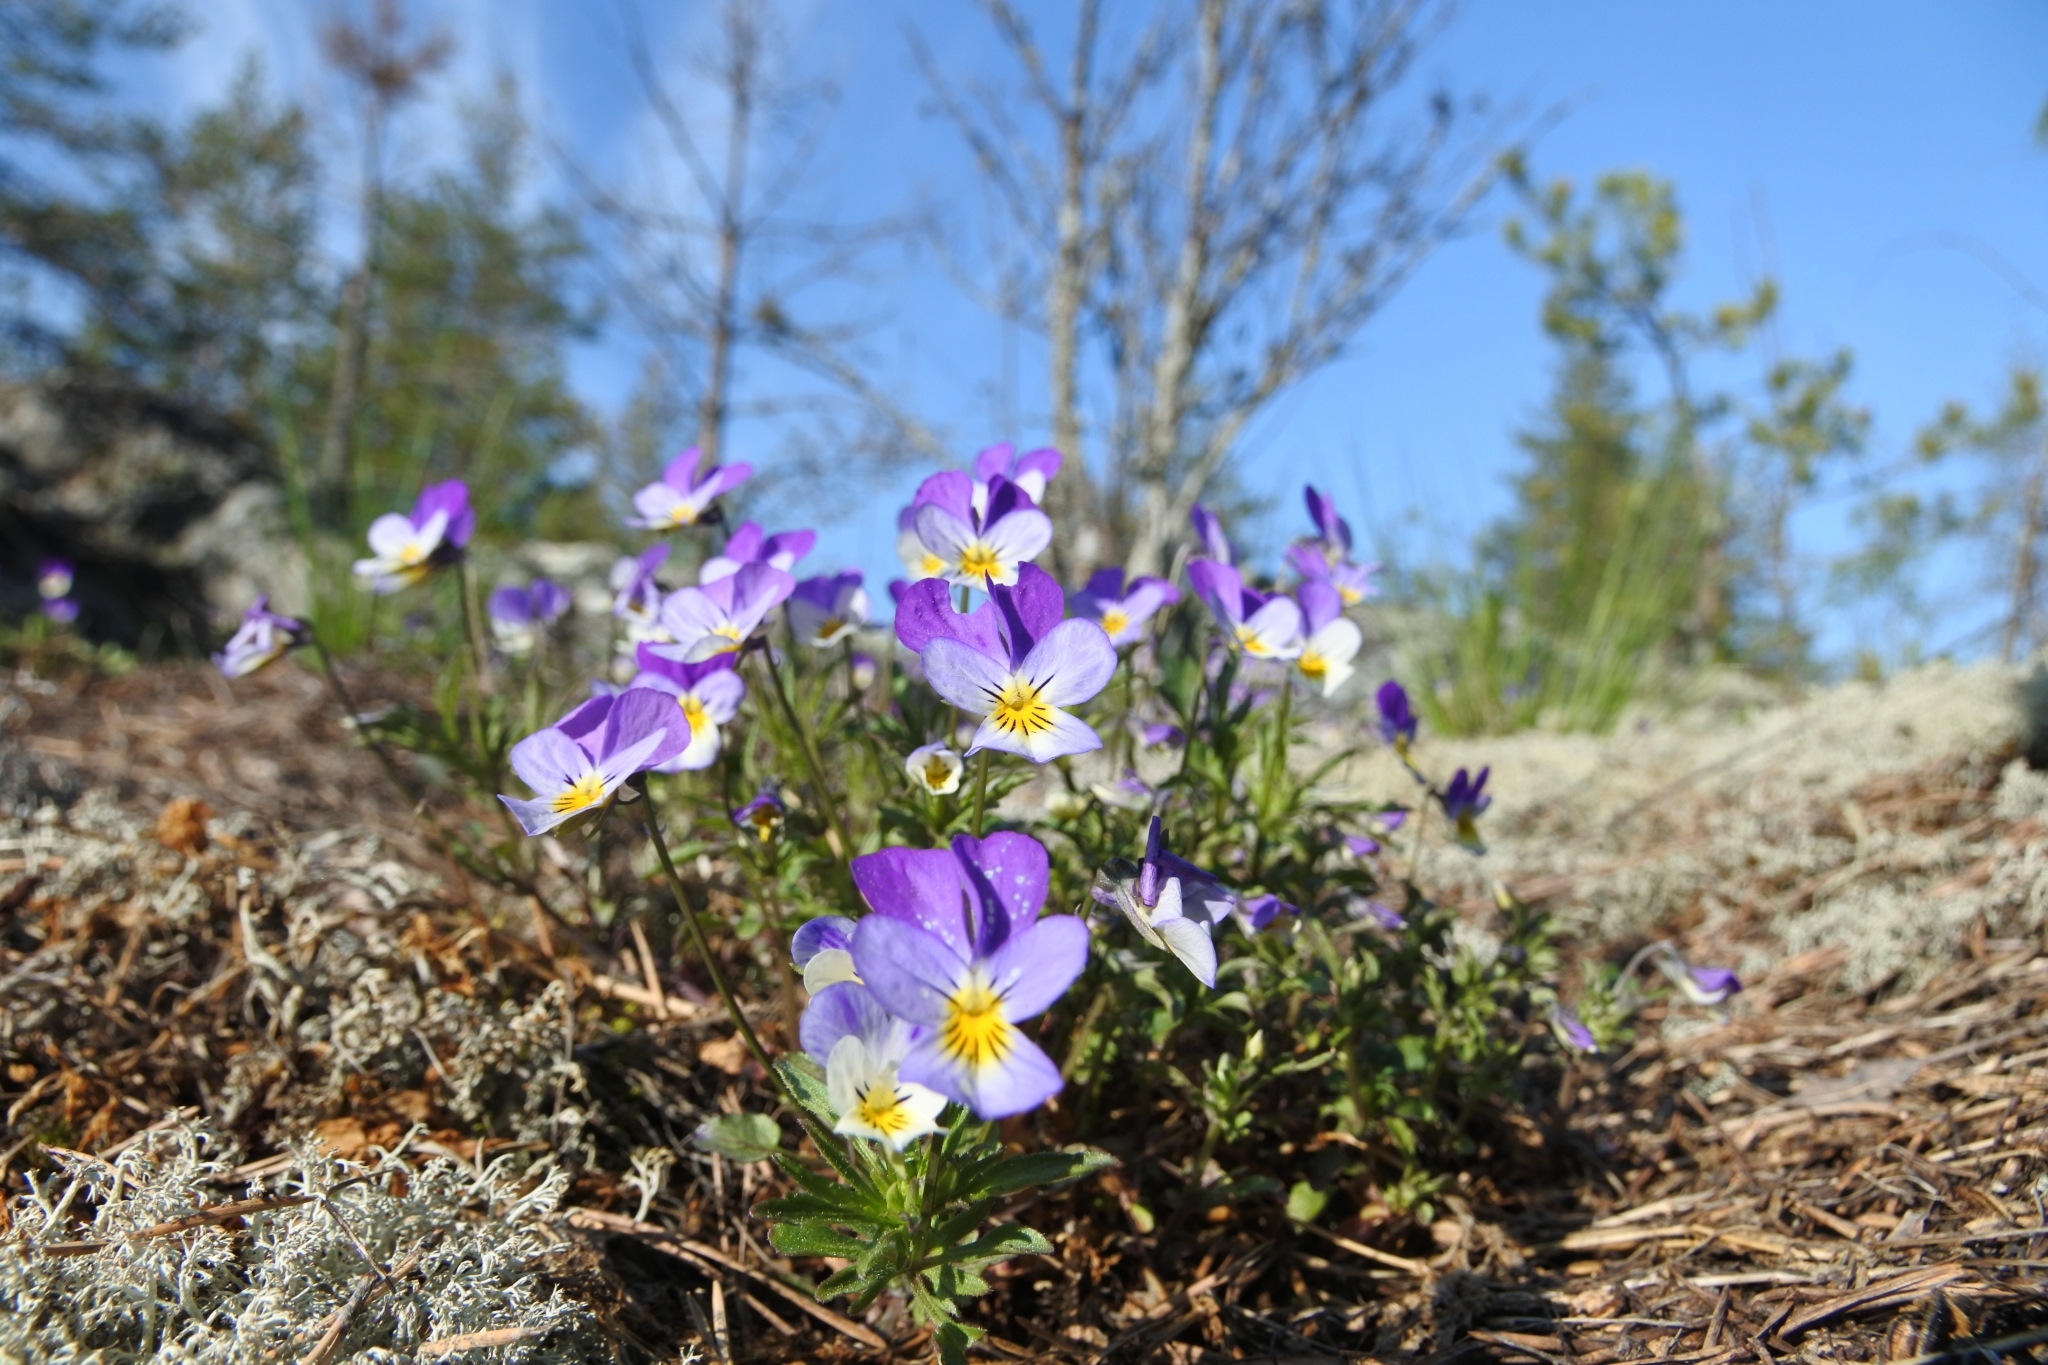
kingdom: Plantae
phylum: Tracheophyta
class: Magnoliopsida
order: Malpighiales
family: Violaceae
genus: Viola
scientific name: Viola tricolor
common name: Pansy
